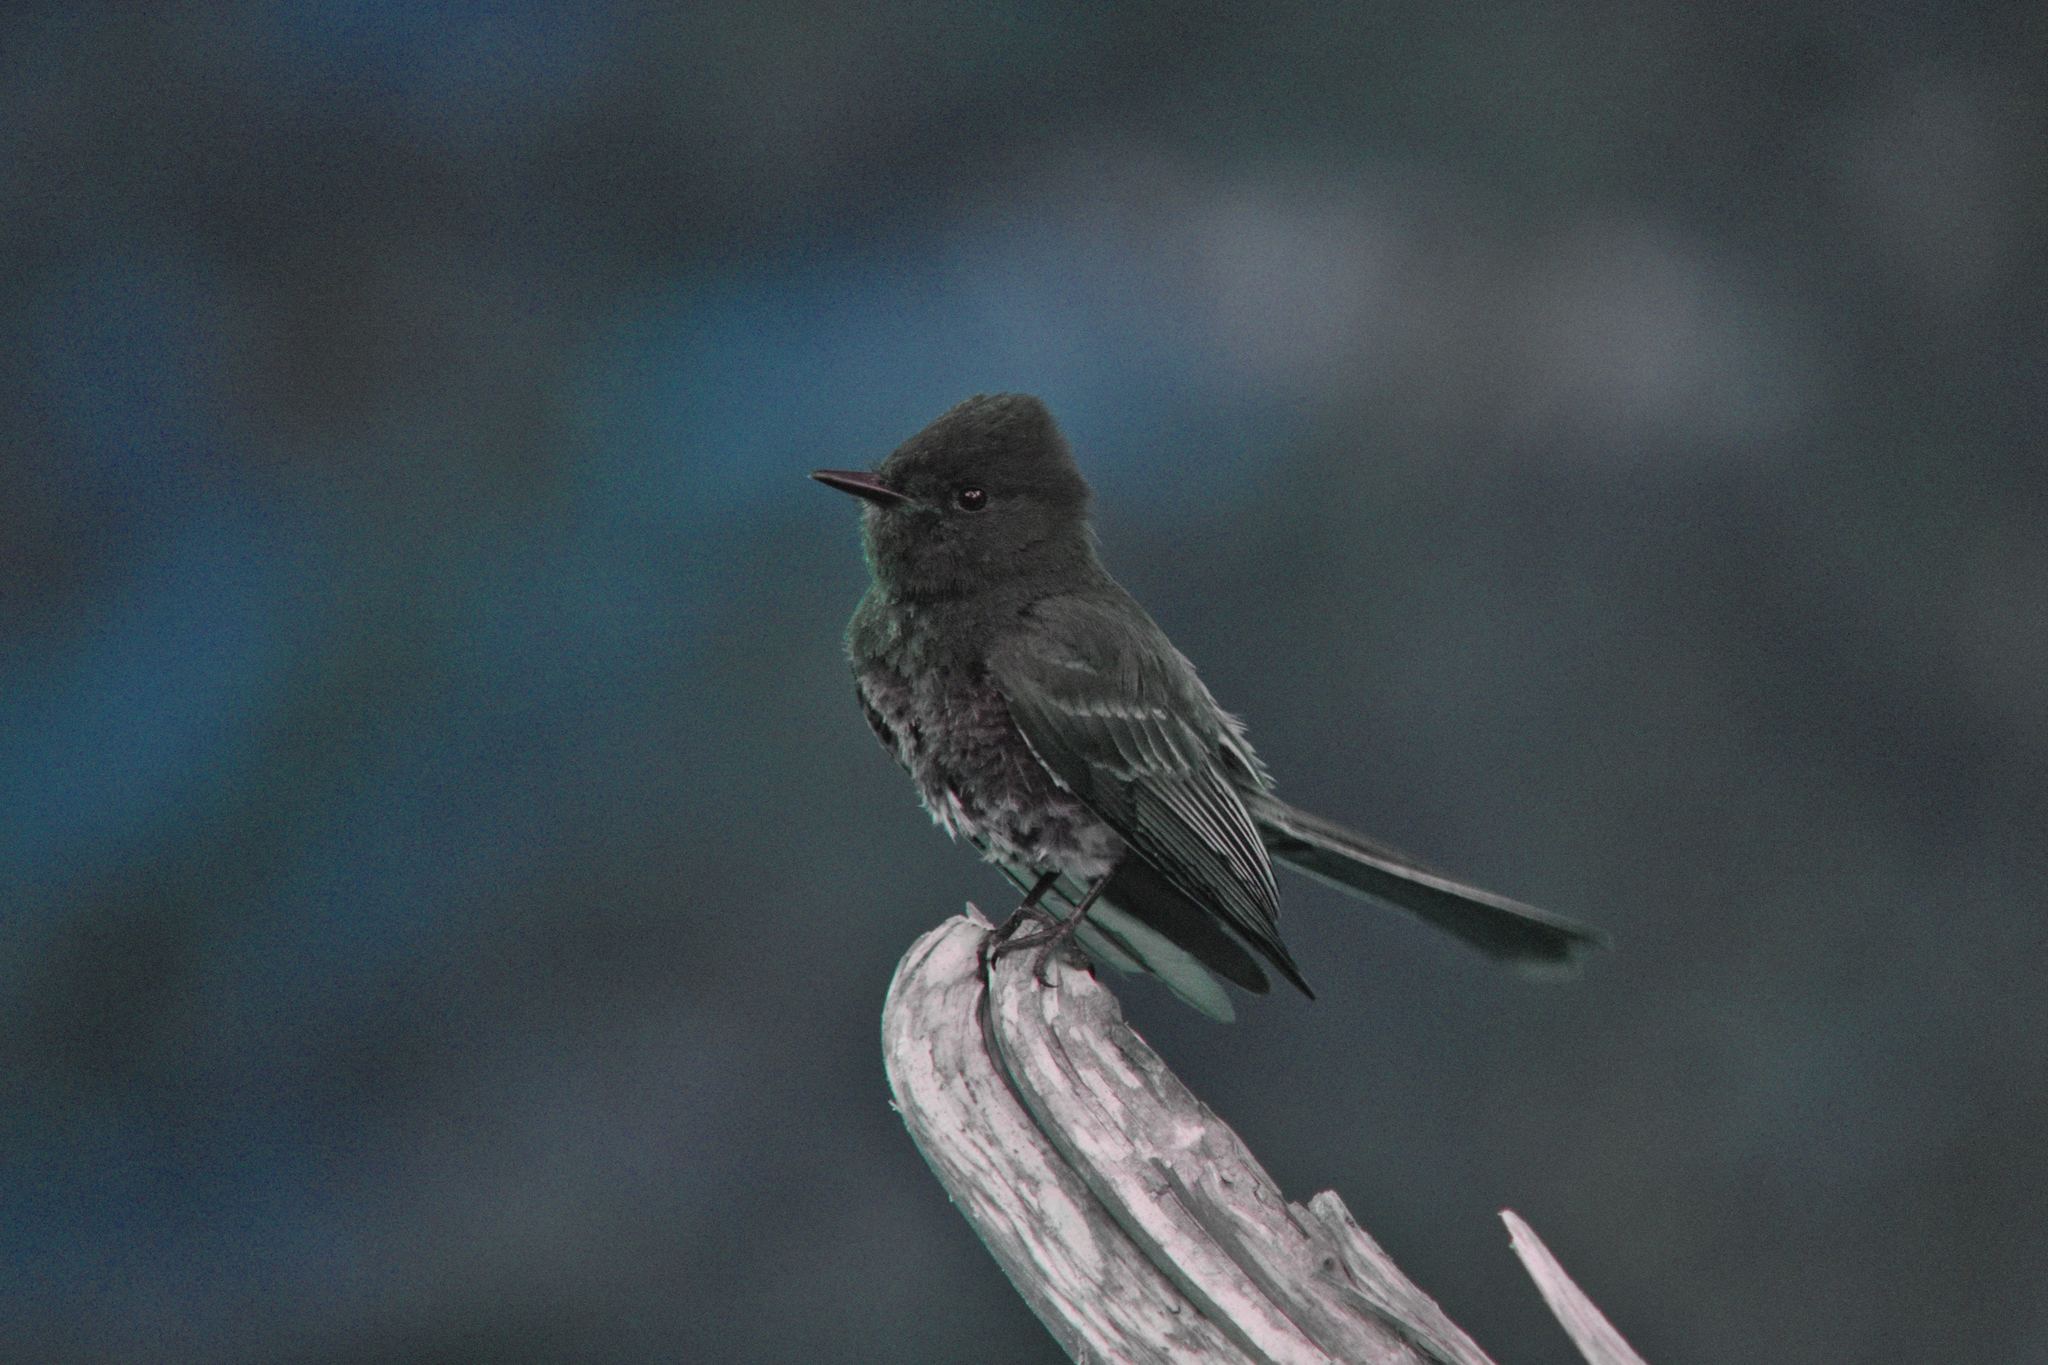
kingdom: Animalia
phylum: Chordata
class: Aves
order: Passeriformes
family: Tyrannidae
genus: Sayornis
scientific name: Sayornis nigricans
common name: Black phoebe
